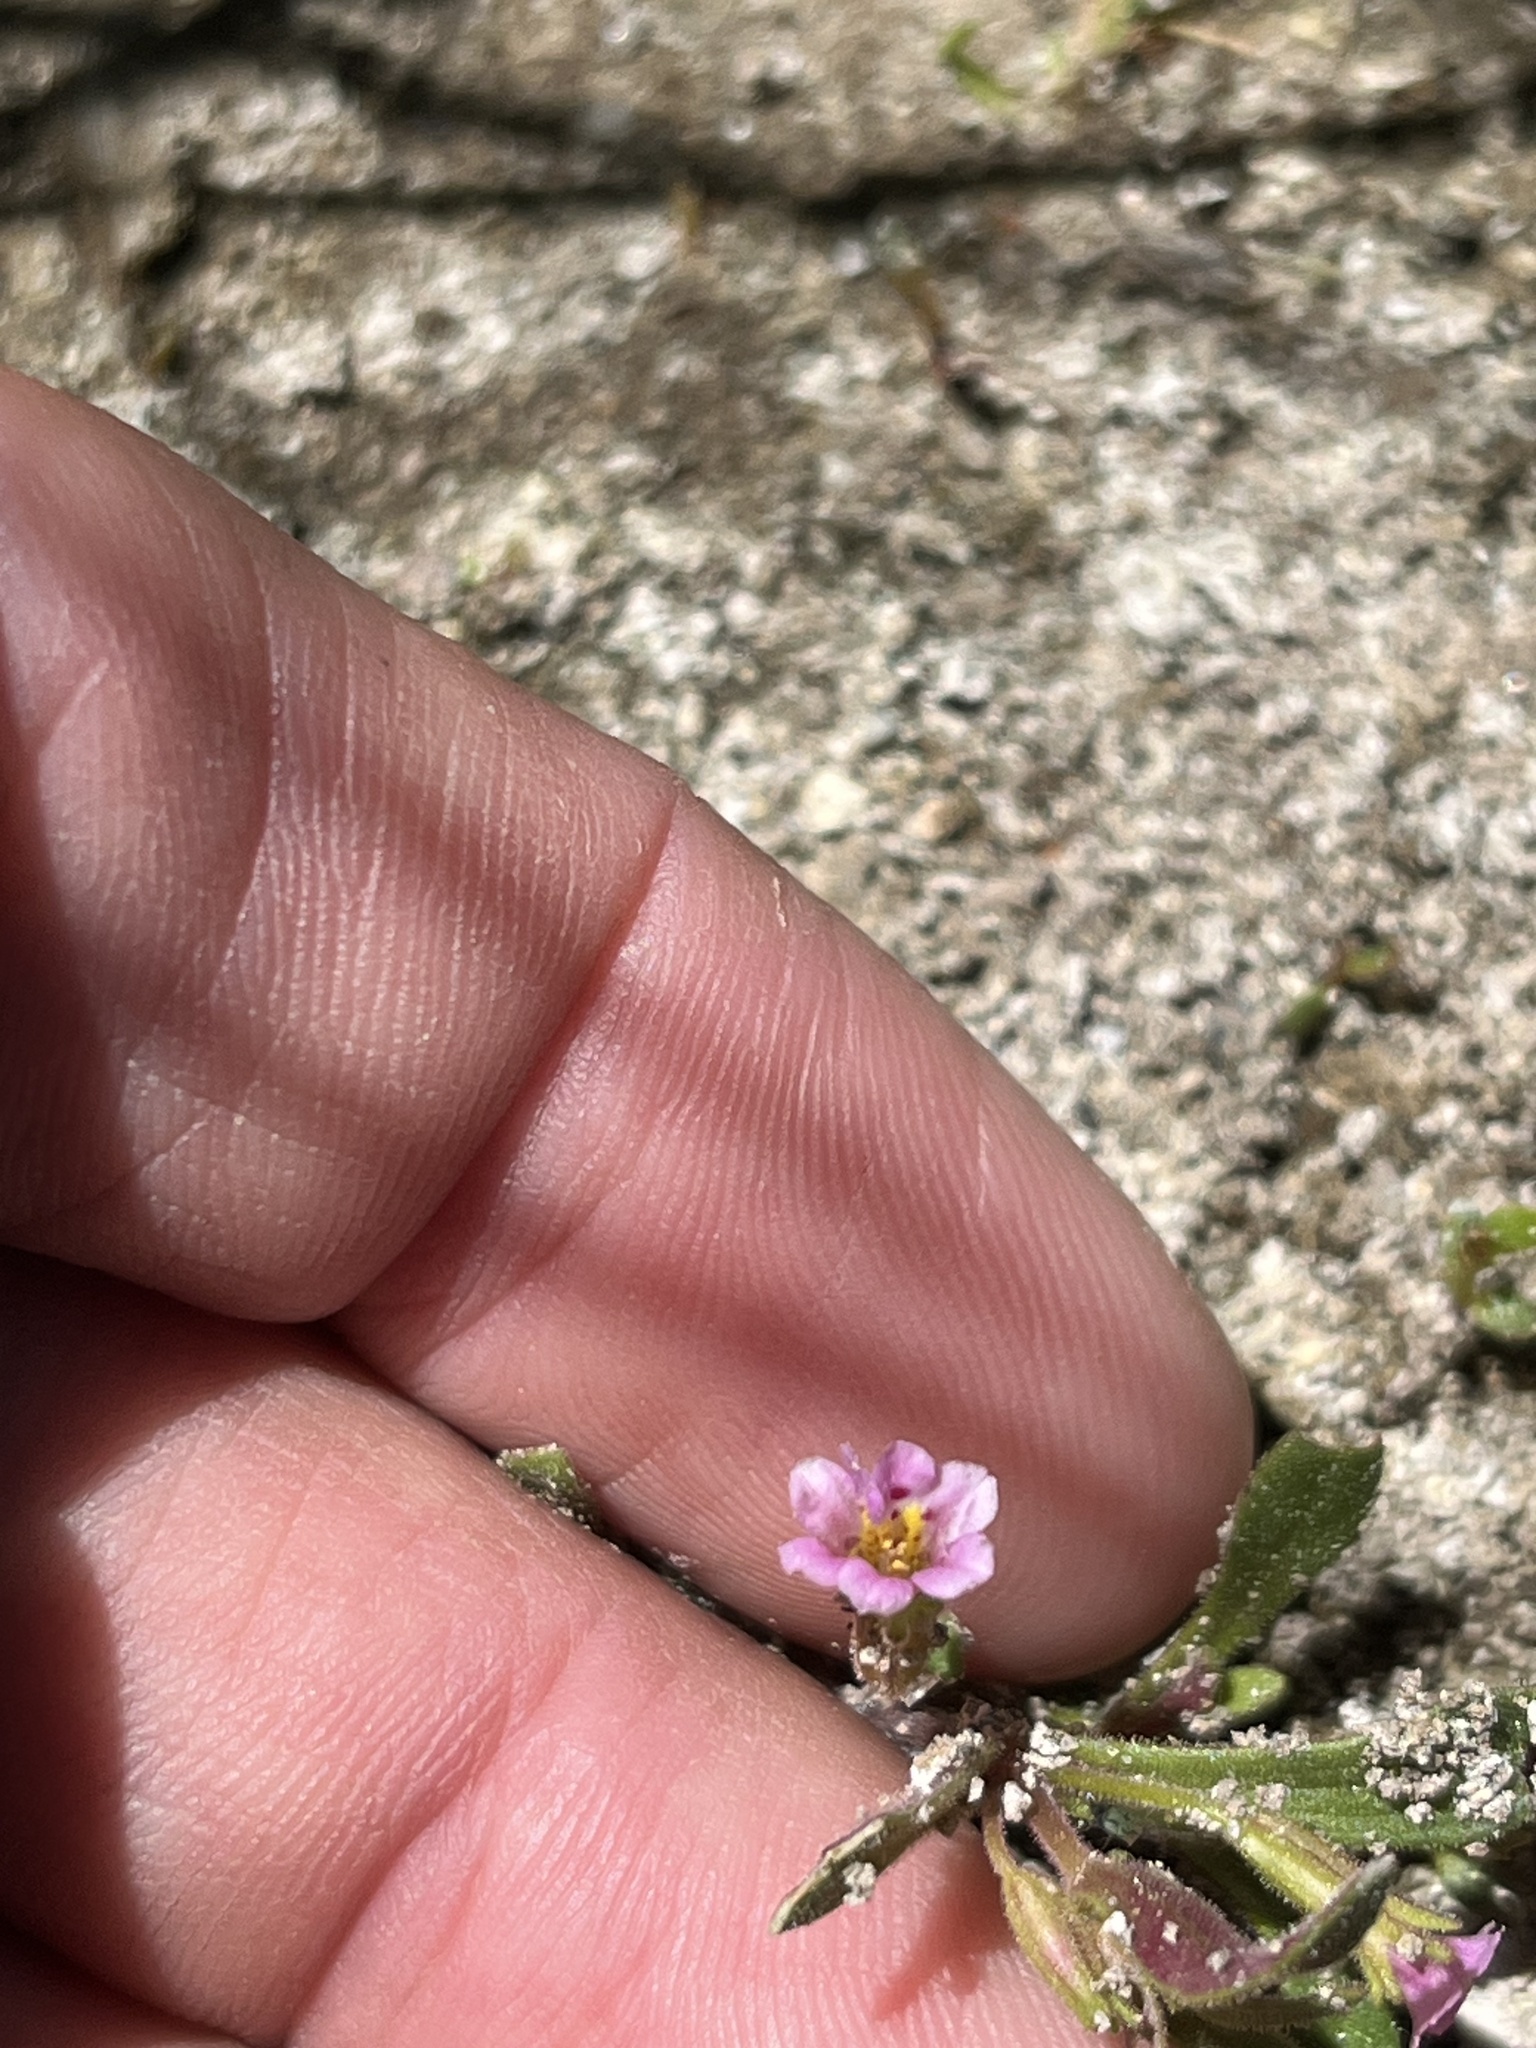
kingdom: Plantae
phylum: Tracheophyta
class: Magnoliopsida
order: Lamiales
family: Phrymaceae
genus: Erythranthe
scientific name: Erythranthe breweri
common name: Brewer's monkeyflower
